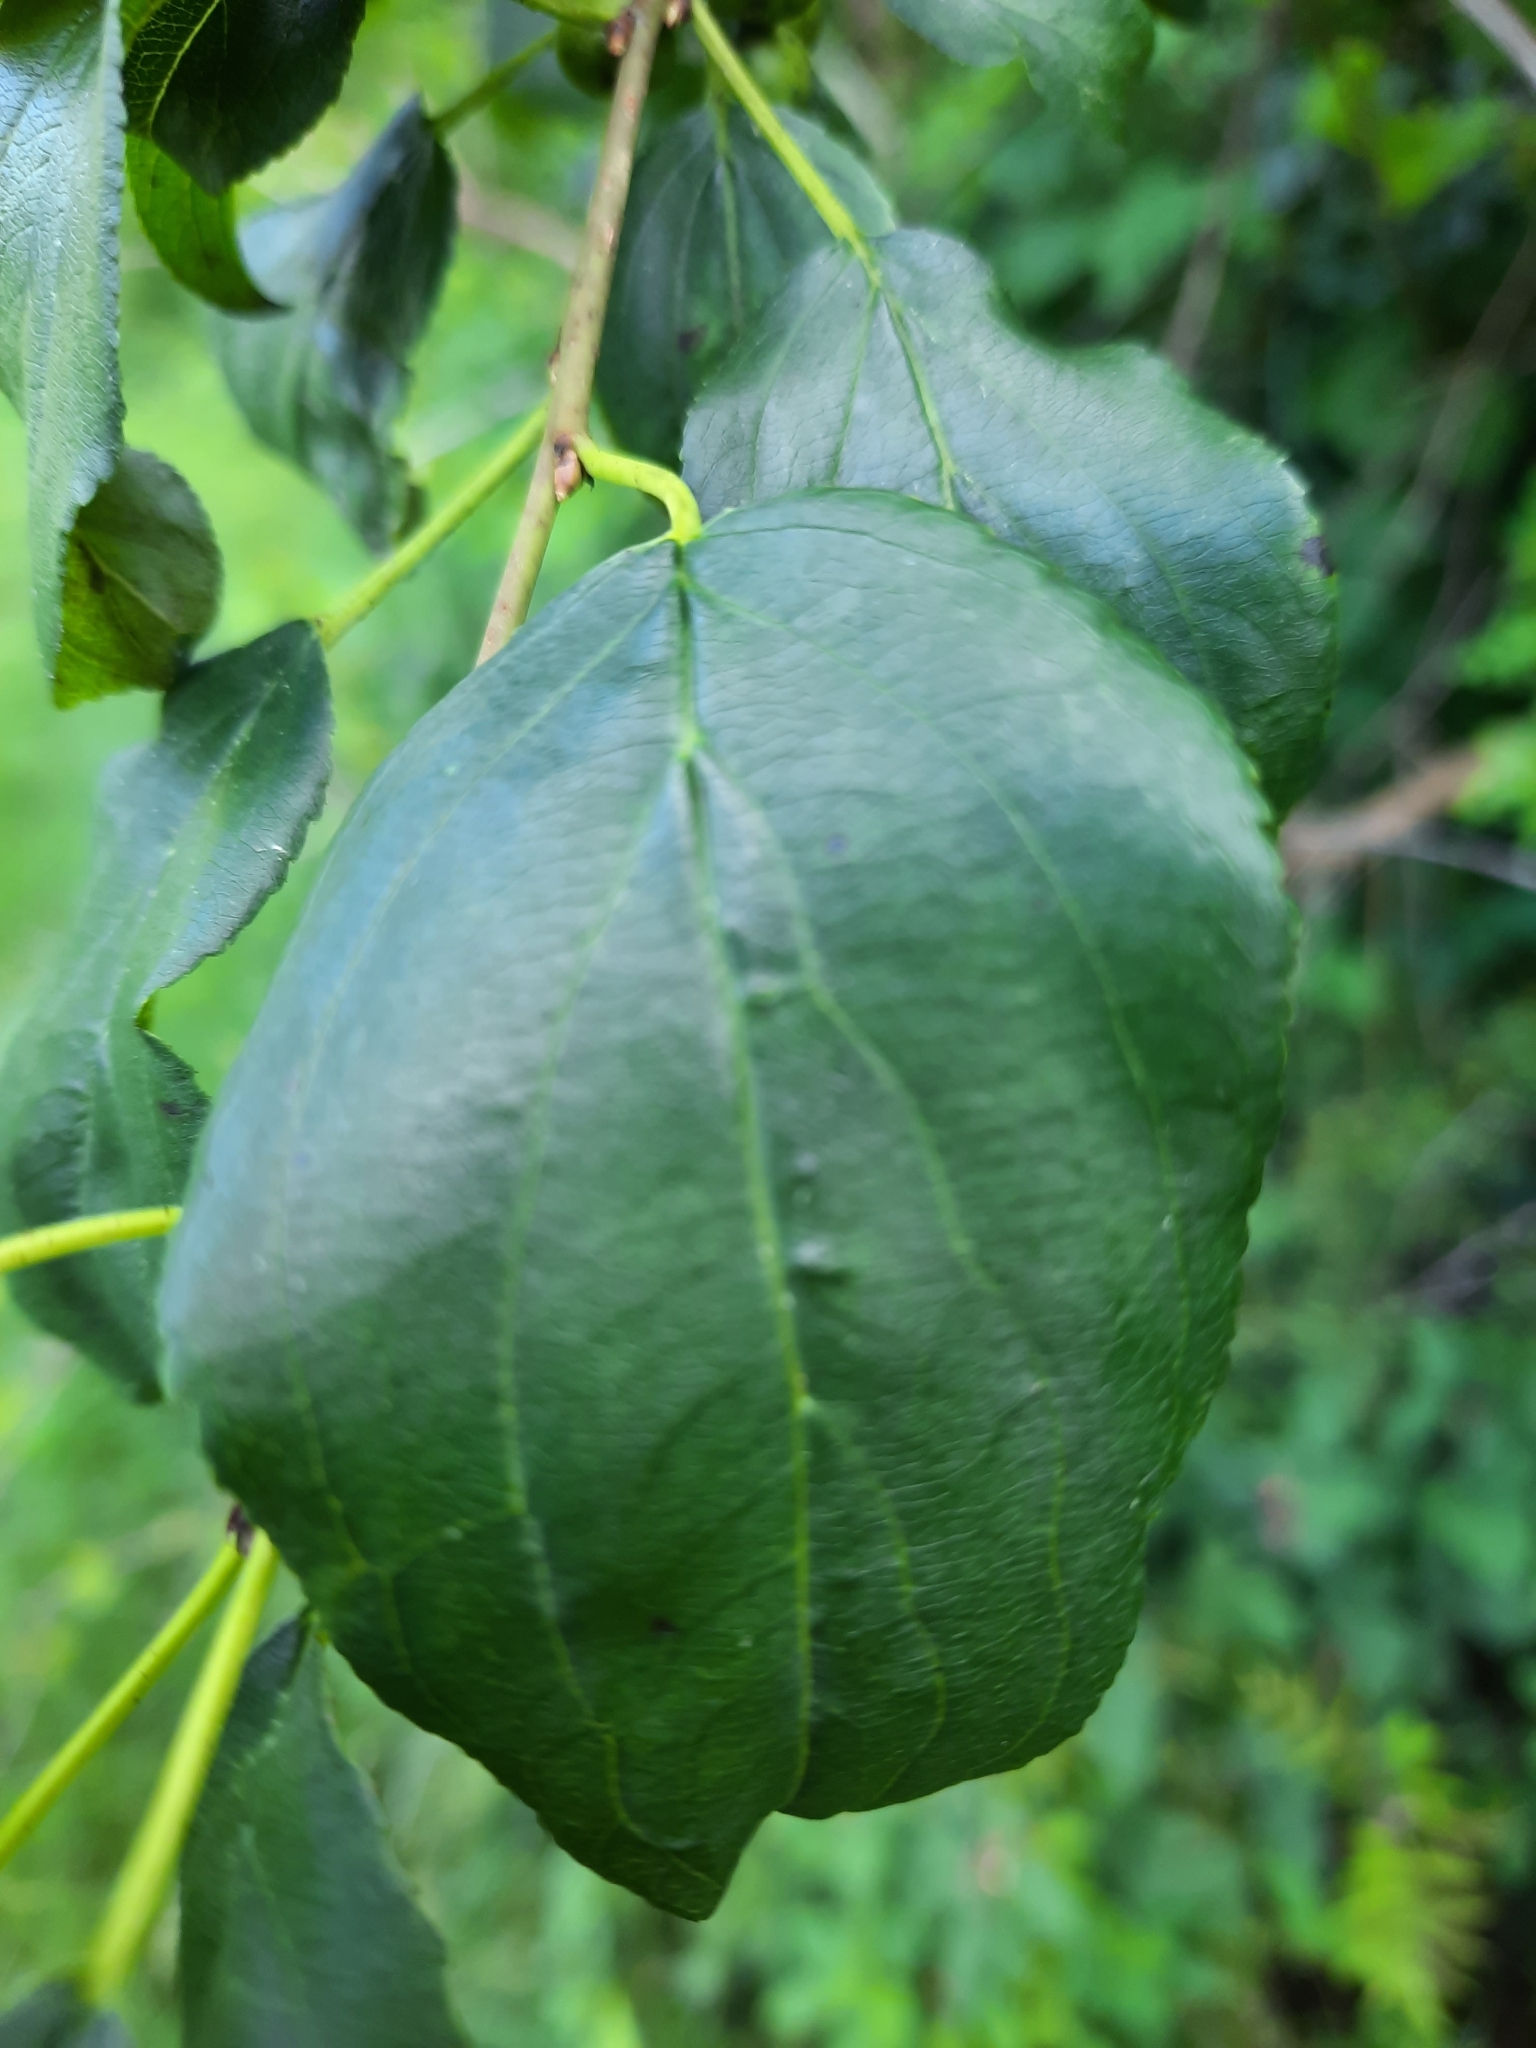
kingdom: Plantae
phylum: Tracheophyta
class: Magnoliopsida
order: Rosales
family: Rhamnaceae
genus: Rhamnus
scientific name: Rhamnus cathartica
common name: Common buckthorn
